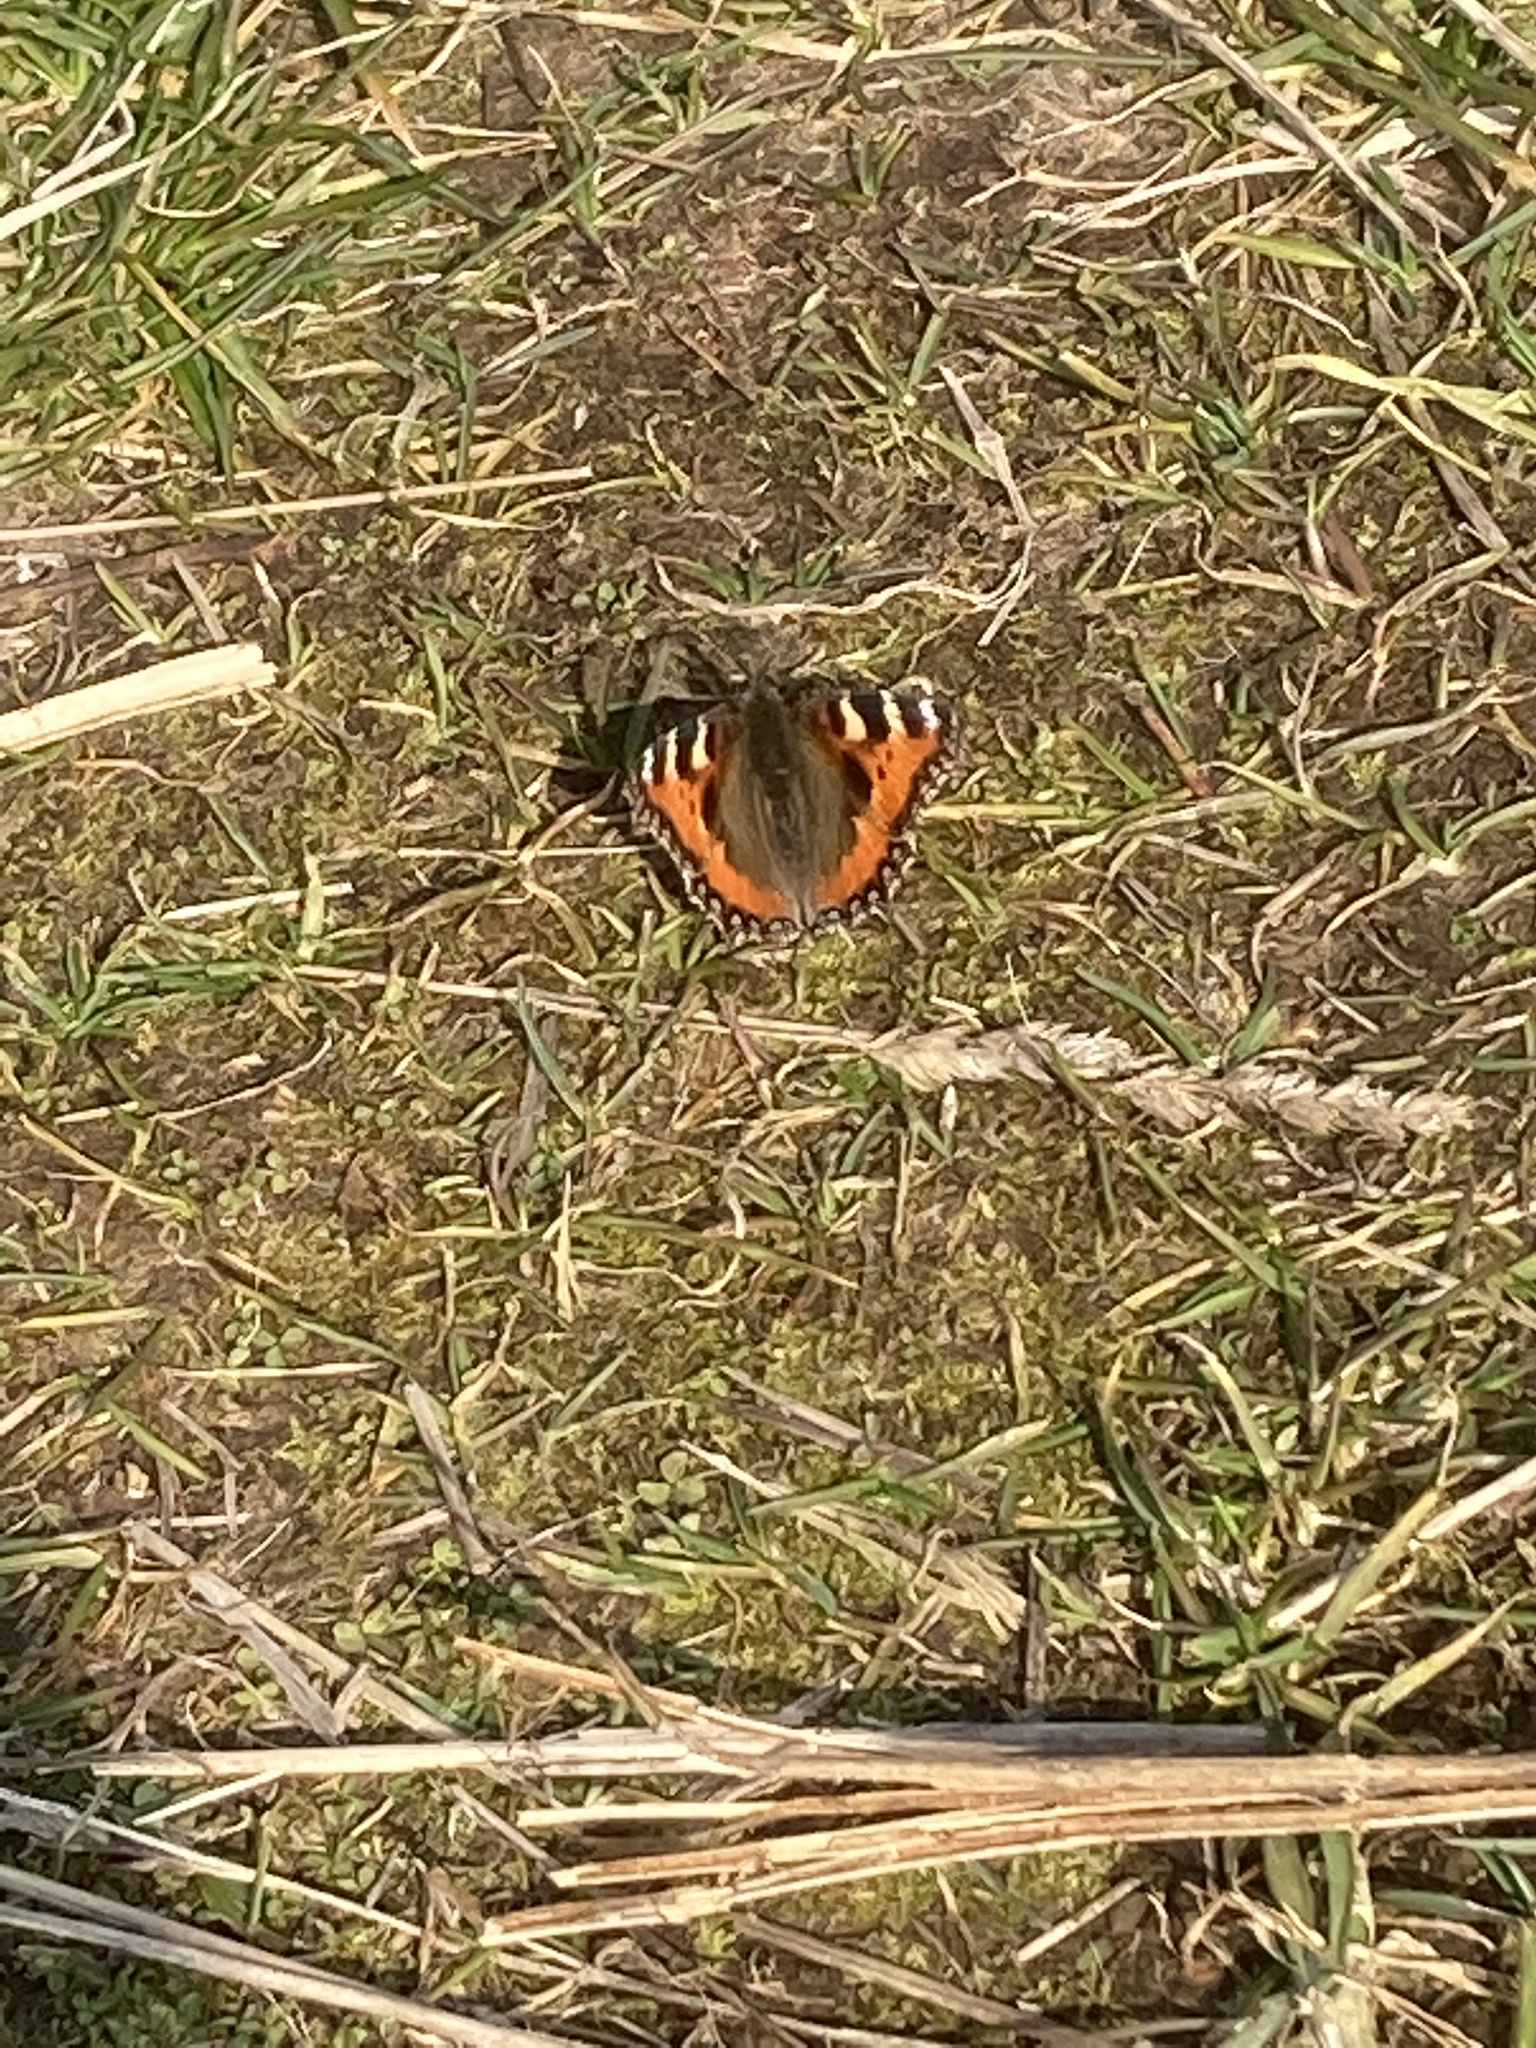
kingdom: Animalia
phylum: Arthropoda
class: Insecta
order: Lepidoptera
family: Nymphalidae
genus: Aglais
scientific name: Aglais urticae
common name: Small tortoiseshell
